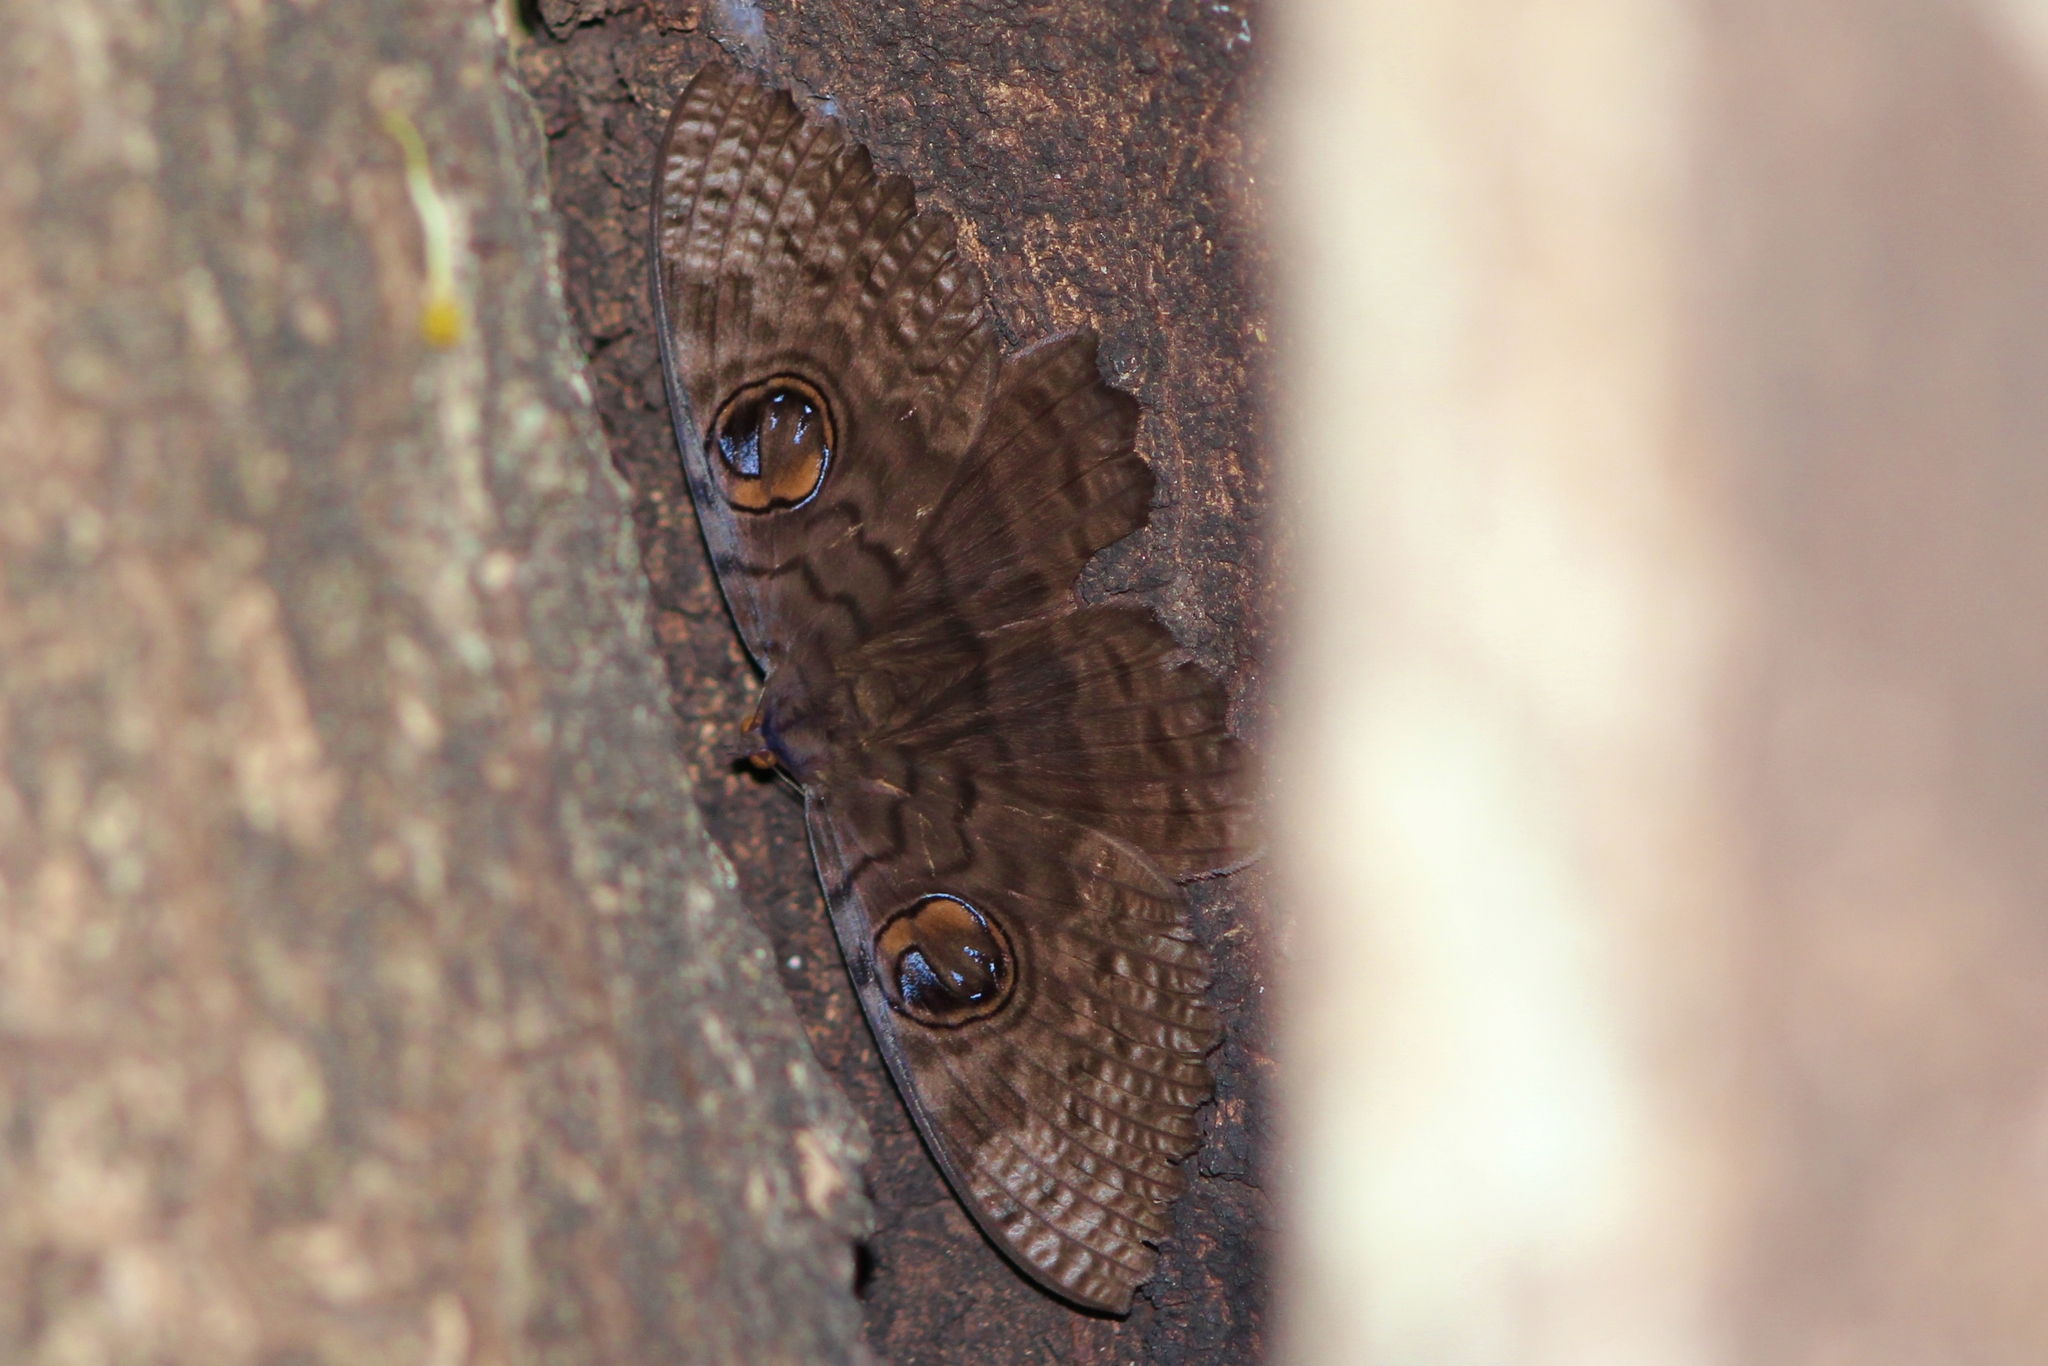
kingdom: Animalia
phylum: Arthropoda
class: Insecta
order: Lepidoptera
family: Erebidae
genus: Erebus
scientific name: Erebus walkeri
